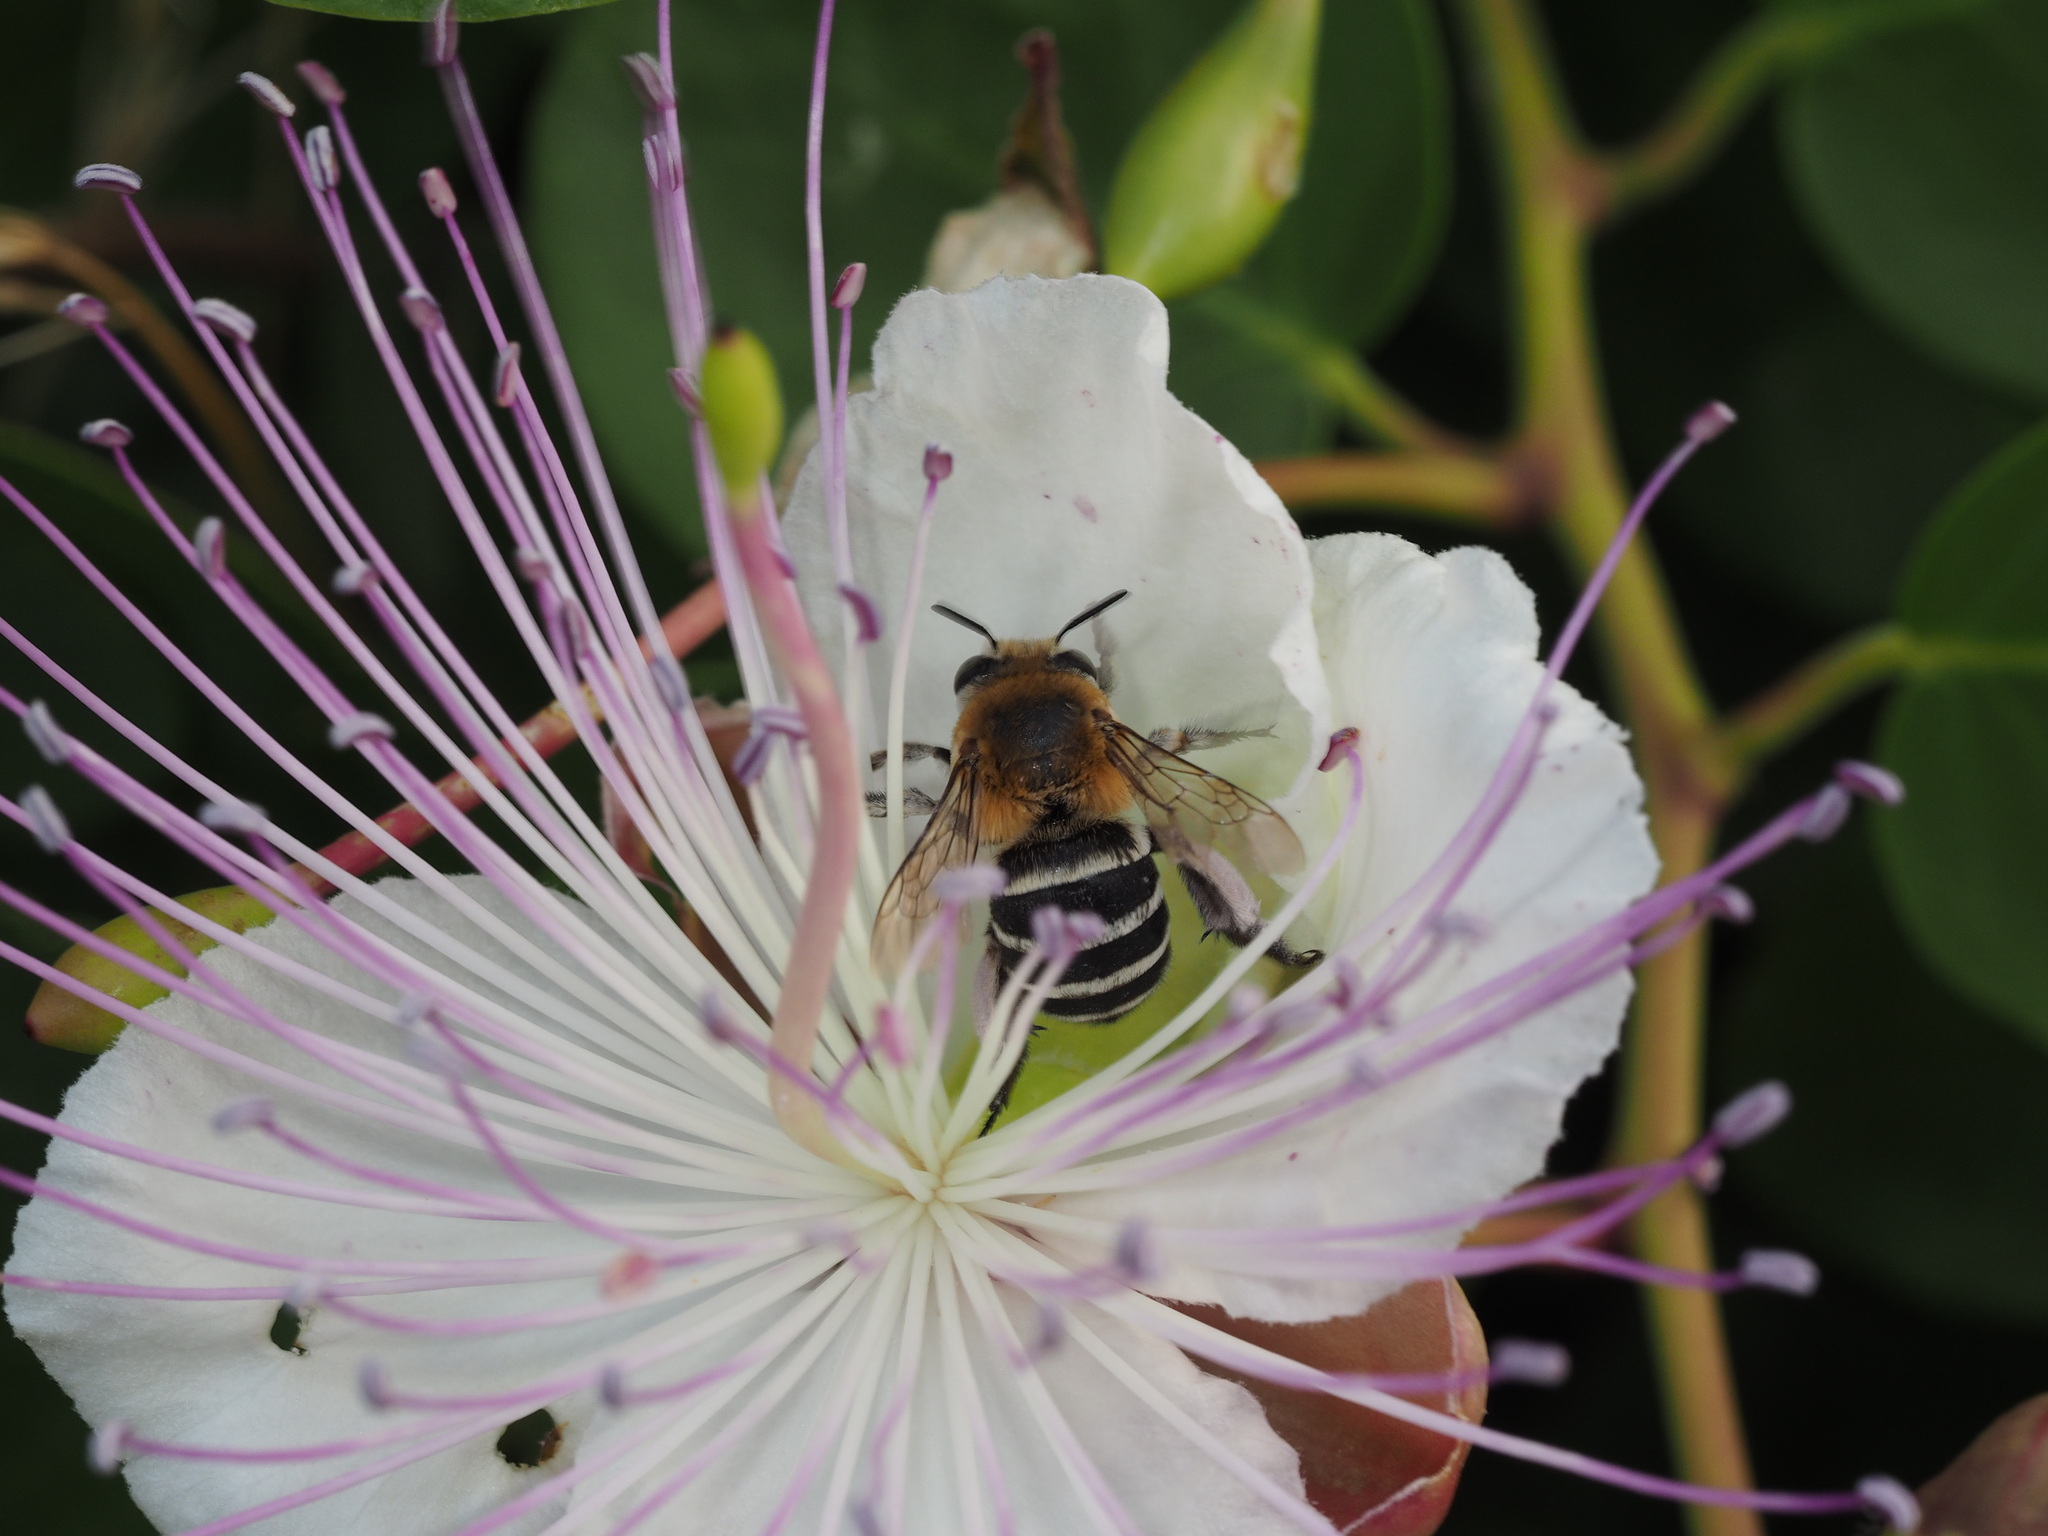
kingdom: Animalia
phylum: Arthropoda
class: Insecta
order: Hymenoptera
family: Apidae
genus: Amegilla
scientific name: Amegilla quadrifasciata
